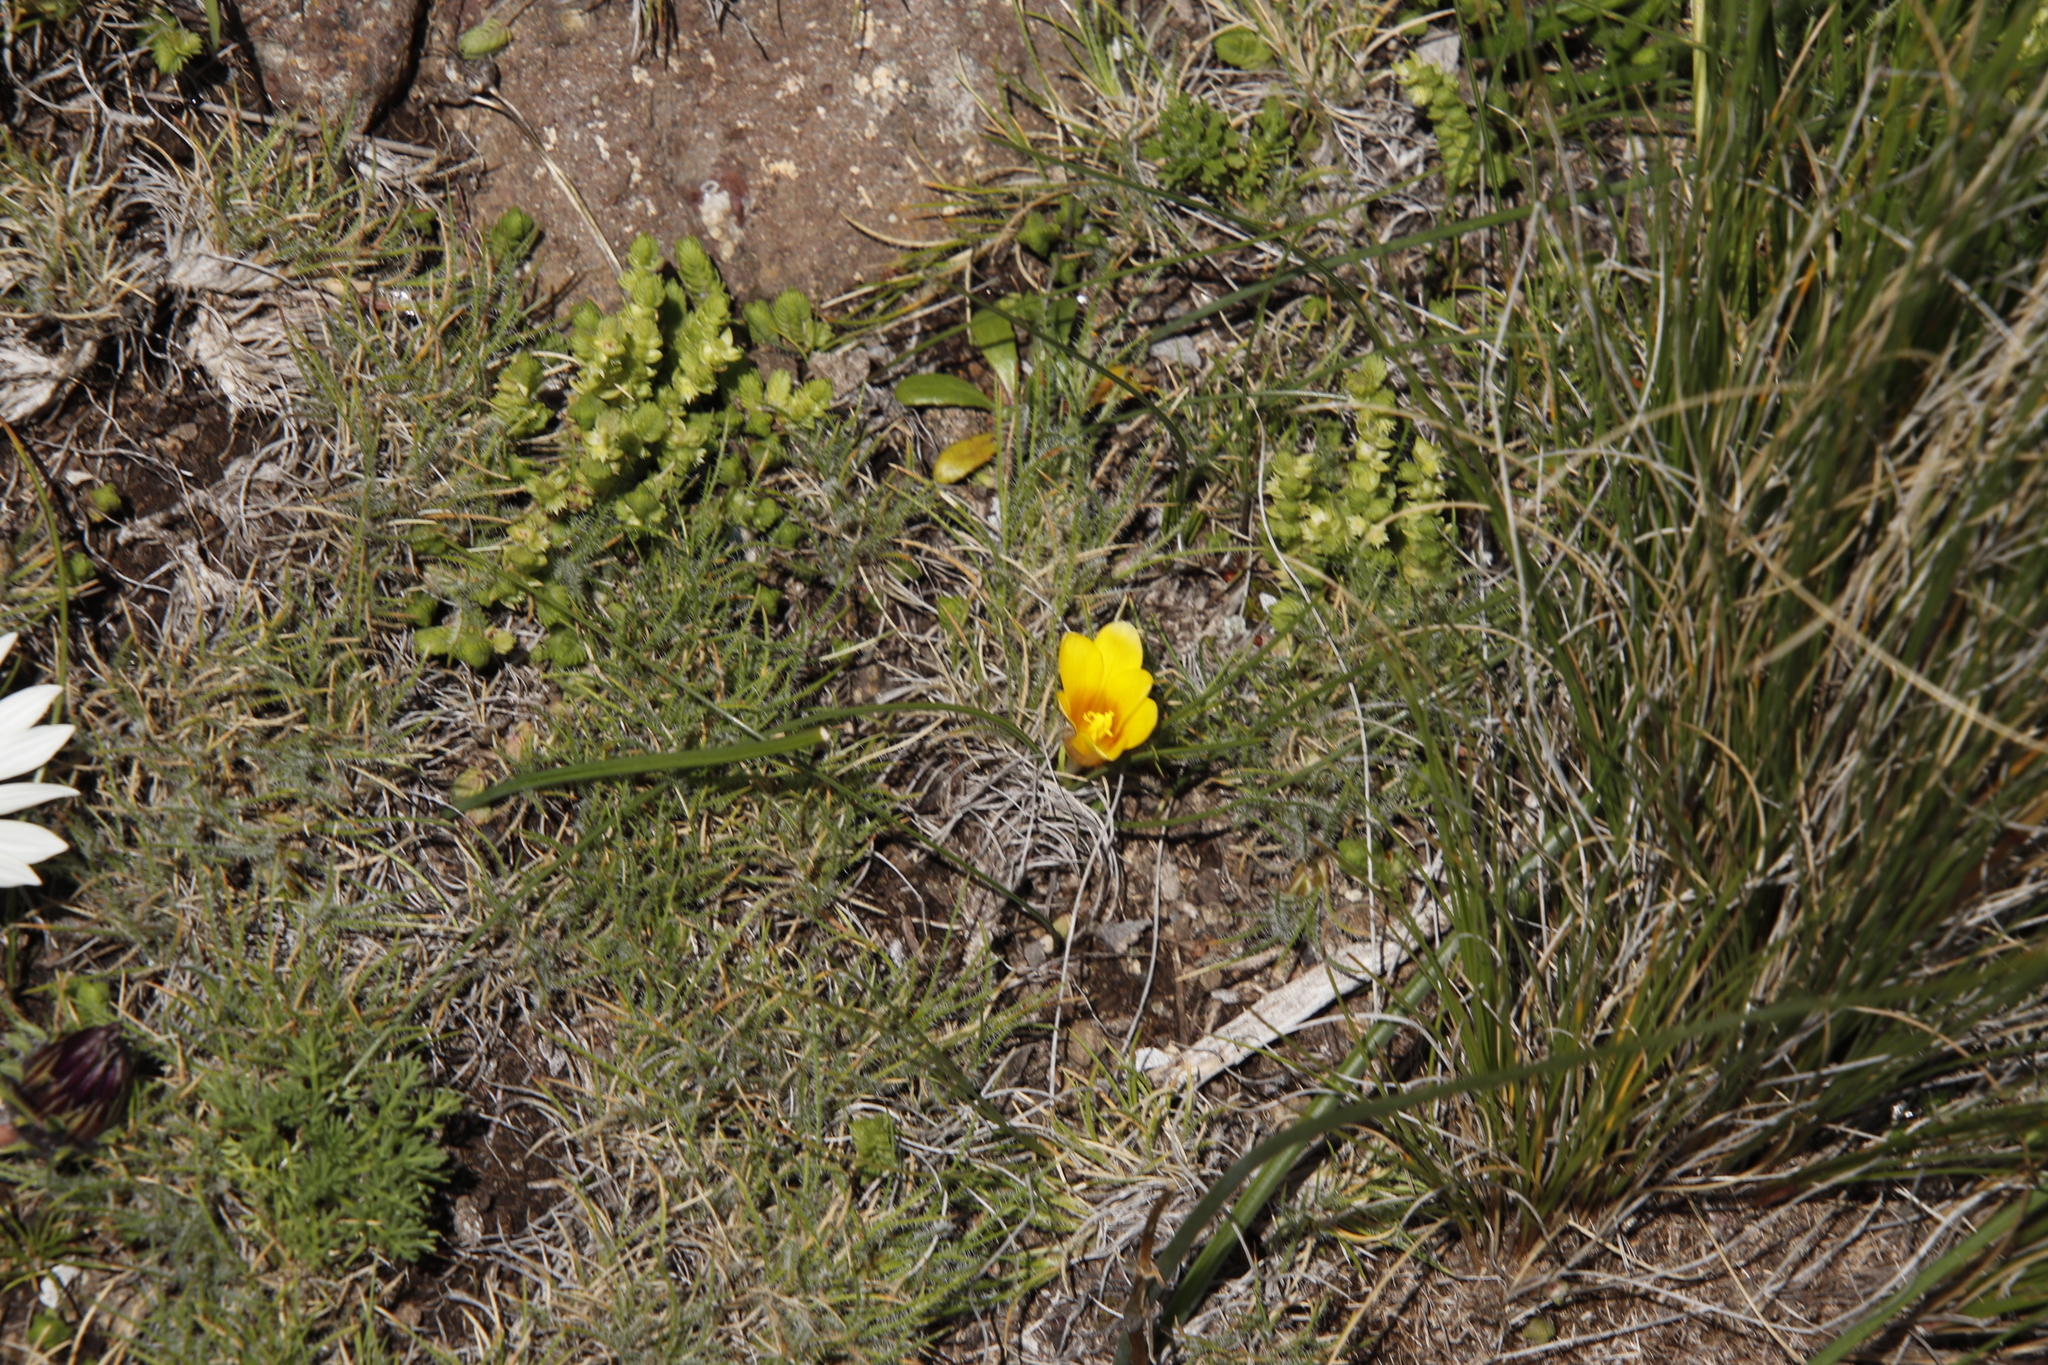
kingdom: Plantae
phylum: Tracheophyta
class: Liliopsida
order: Asparagales
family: Iridaceae
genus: Romulea
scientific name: Romulea macowanii
